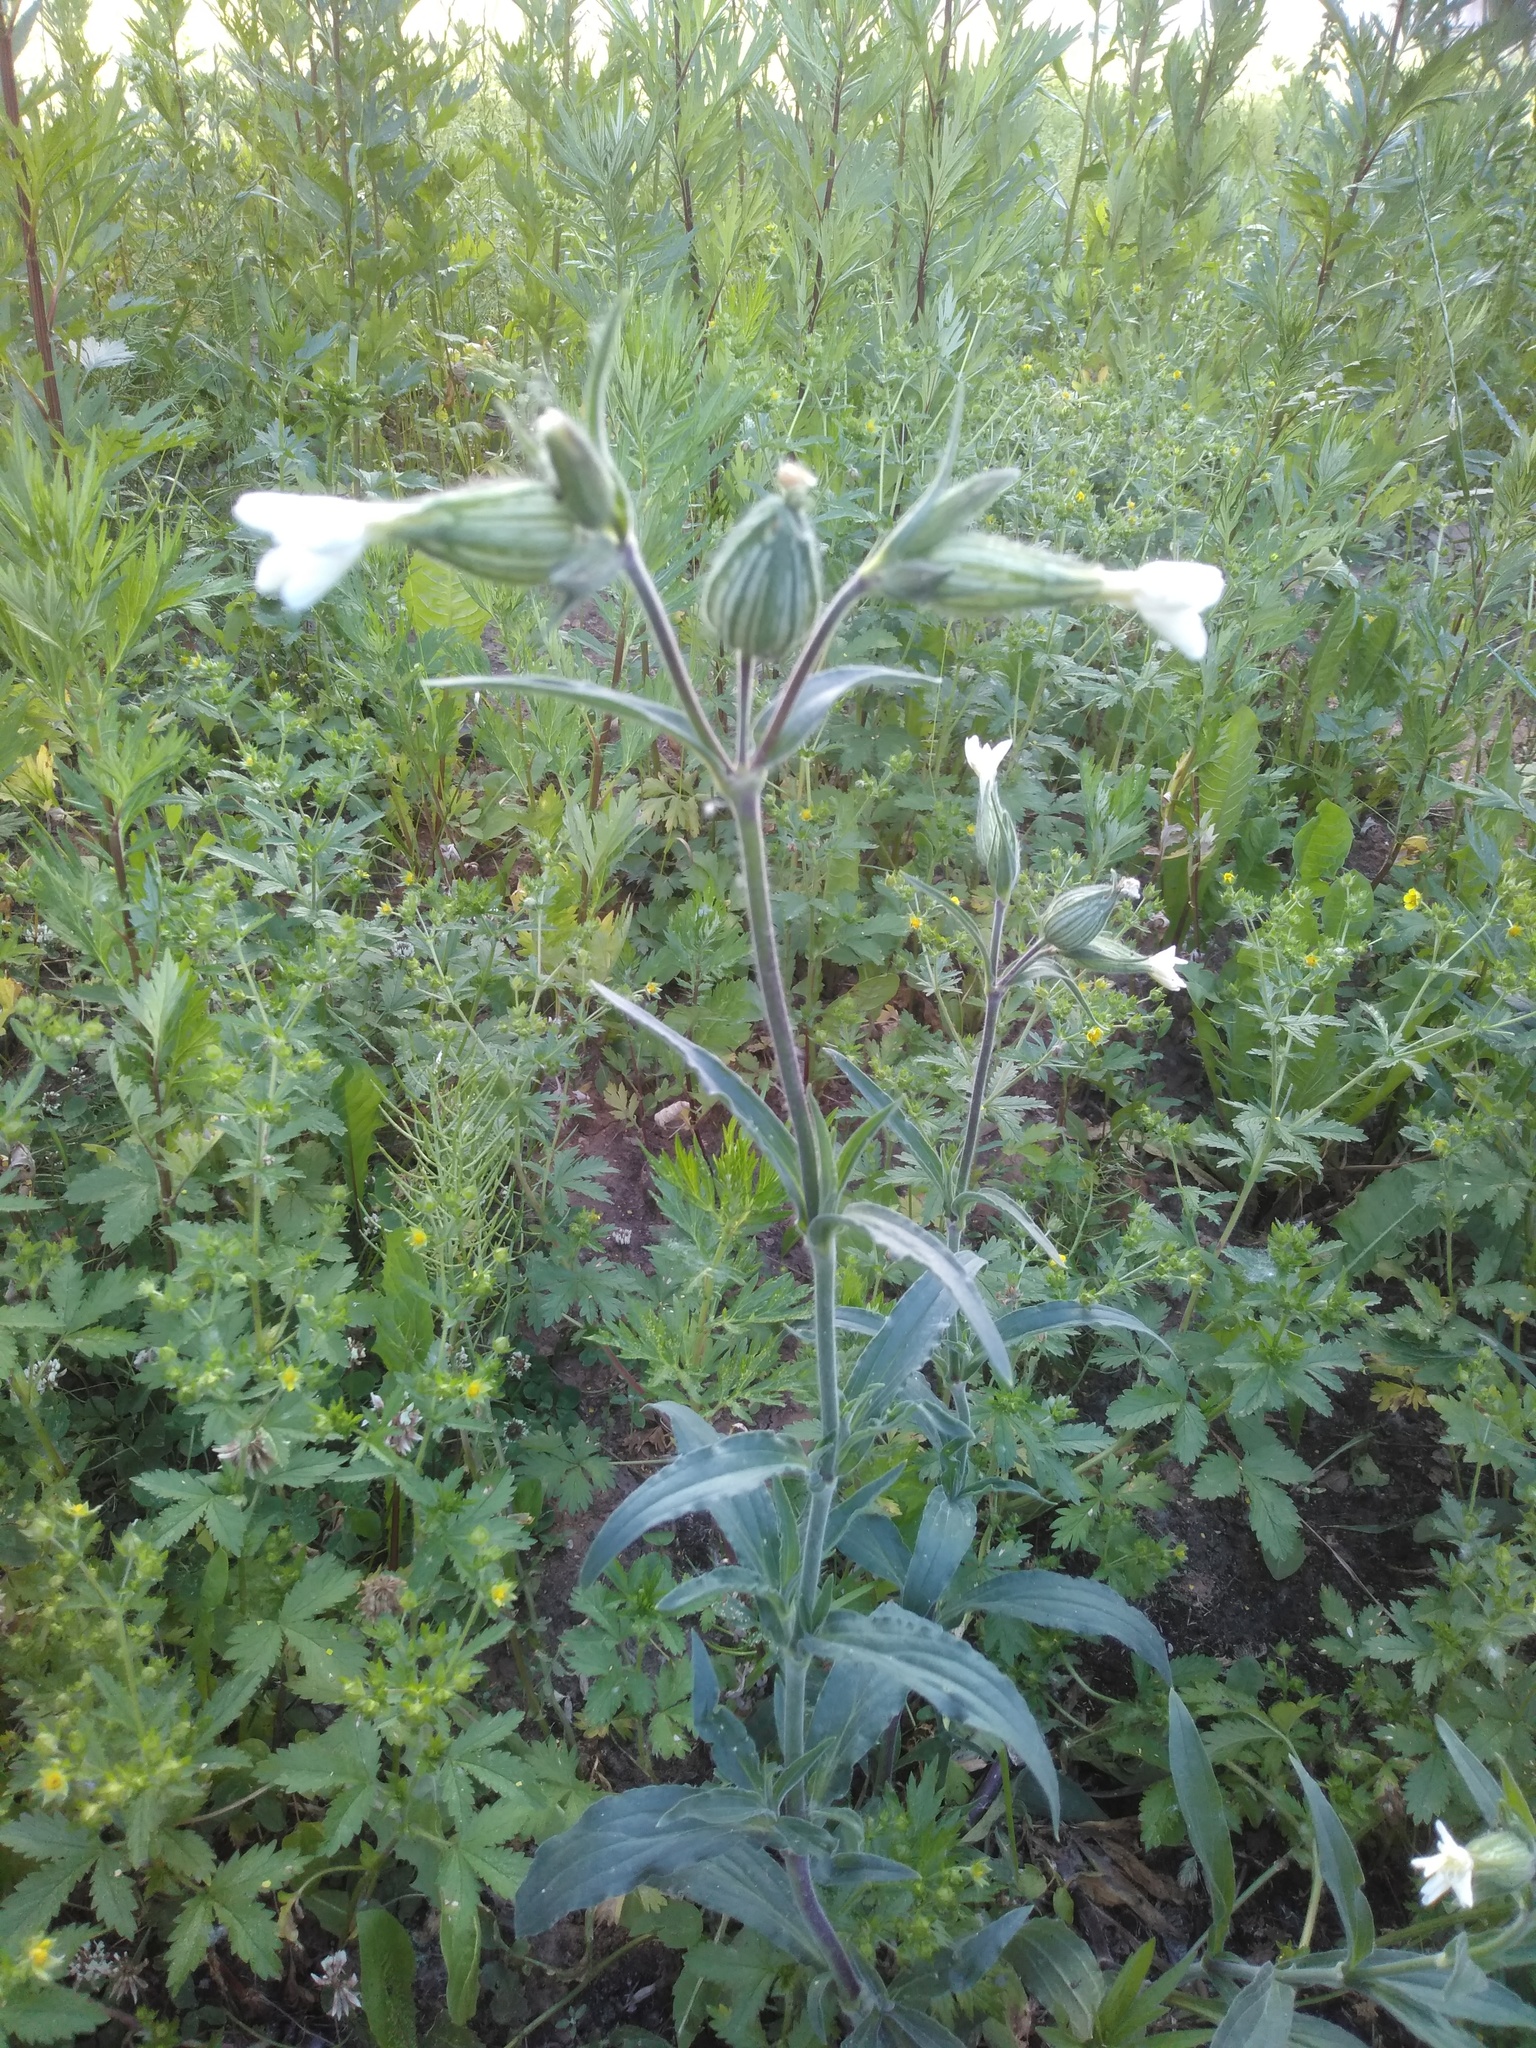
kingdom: Plantae
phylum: Tracheophyta
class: Magnoliopsida
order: Caryophyllales
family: Caryophyllaceae
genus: Silene
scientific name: Silene latifolia
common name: White campion
